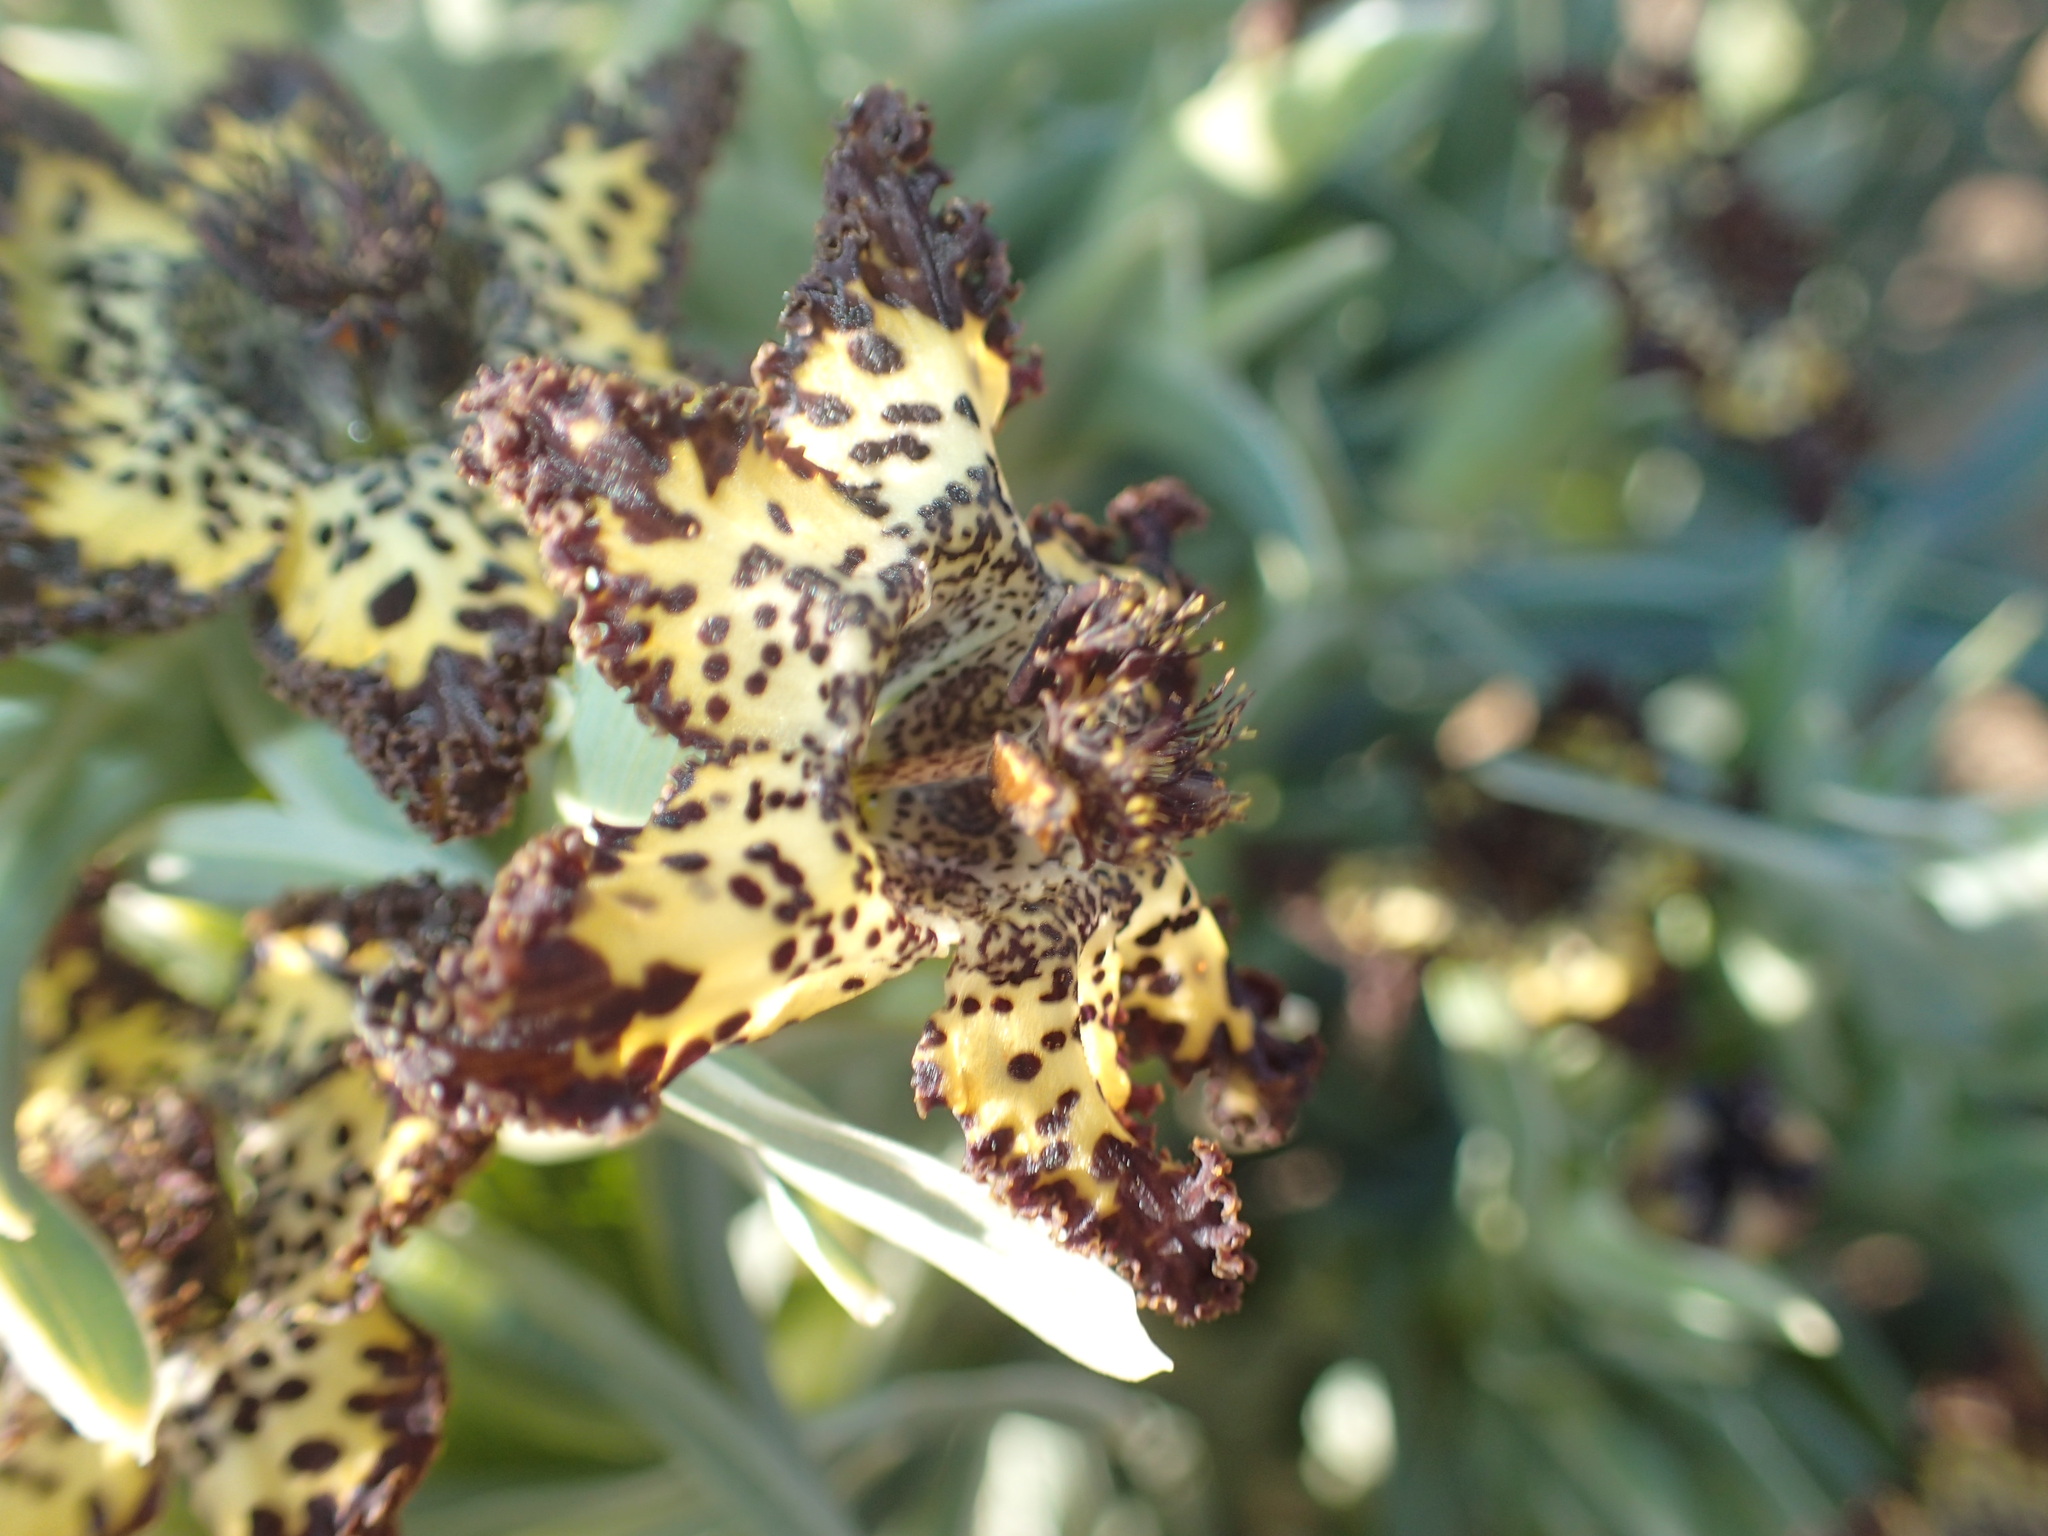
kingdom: Plantae
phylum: Tracheophyta
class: Liliopsida
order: Asparagales
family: Iridaceae
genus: Ferraria
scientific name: Ferraria schaeferi
